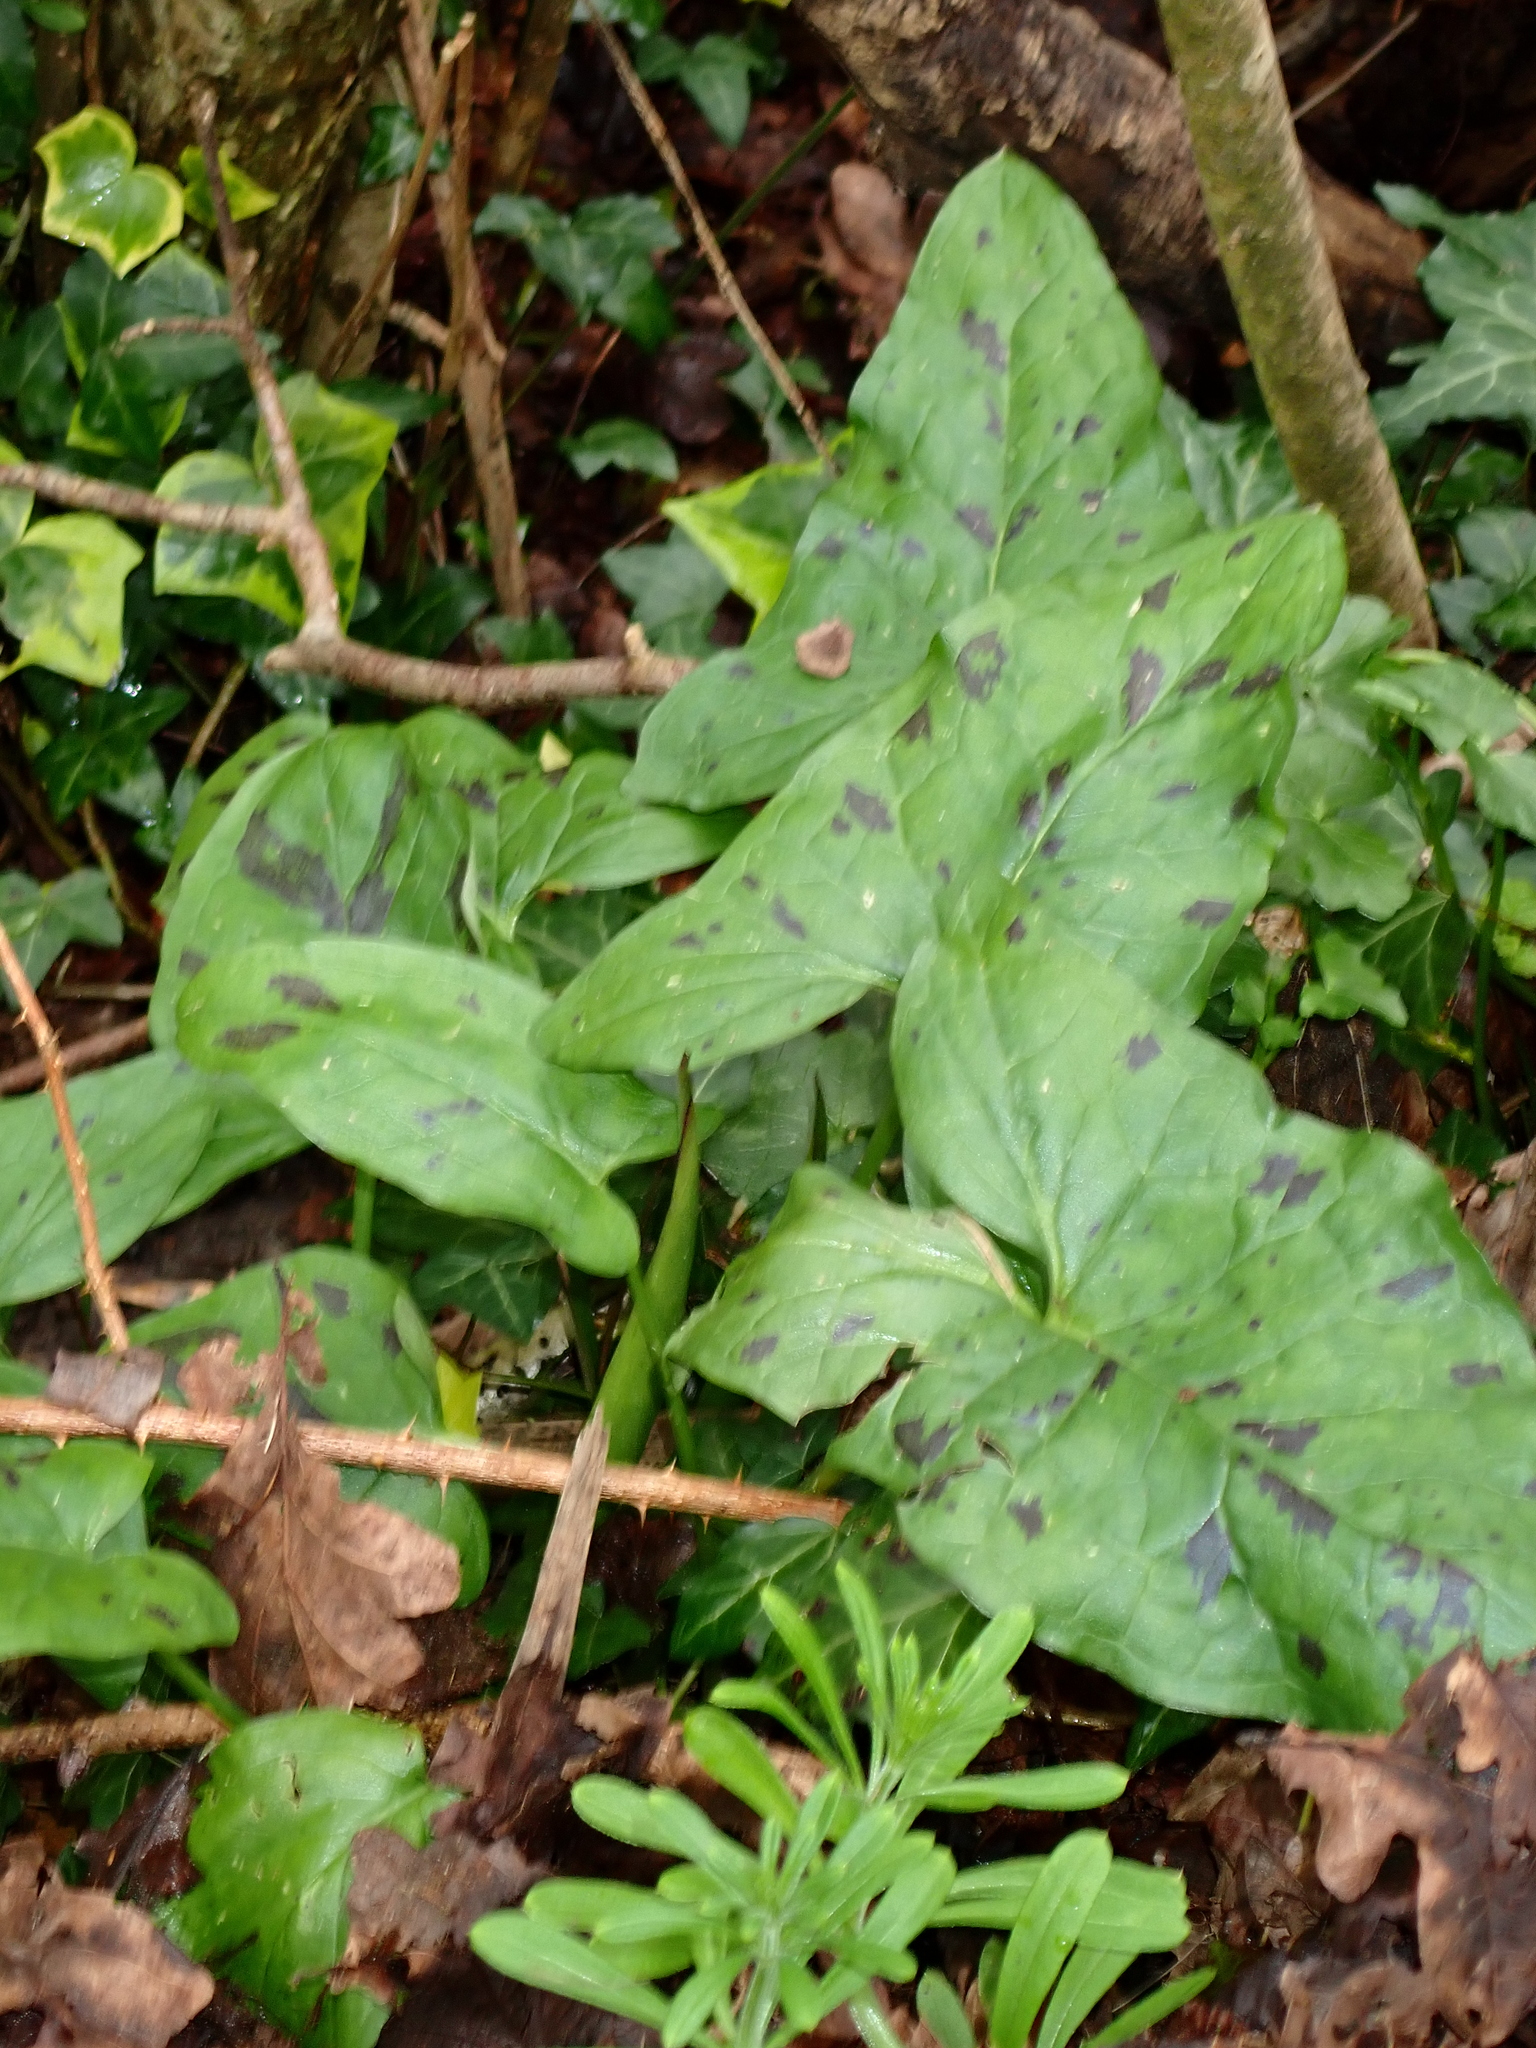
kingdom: Plantae
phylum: Tracheophyta
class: Liliopsida
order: Alismatales
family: Araceae
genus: Arum
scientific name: Arum maculatum
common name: Lords-and-ladies
